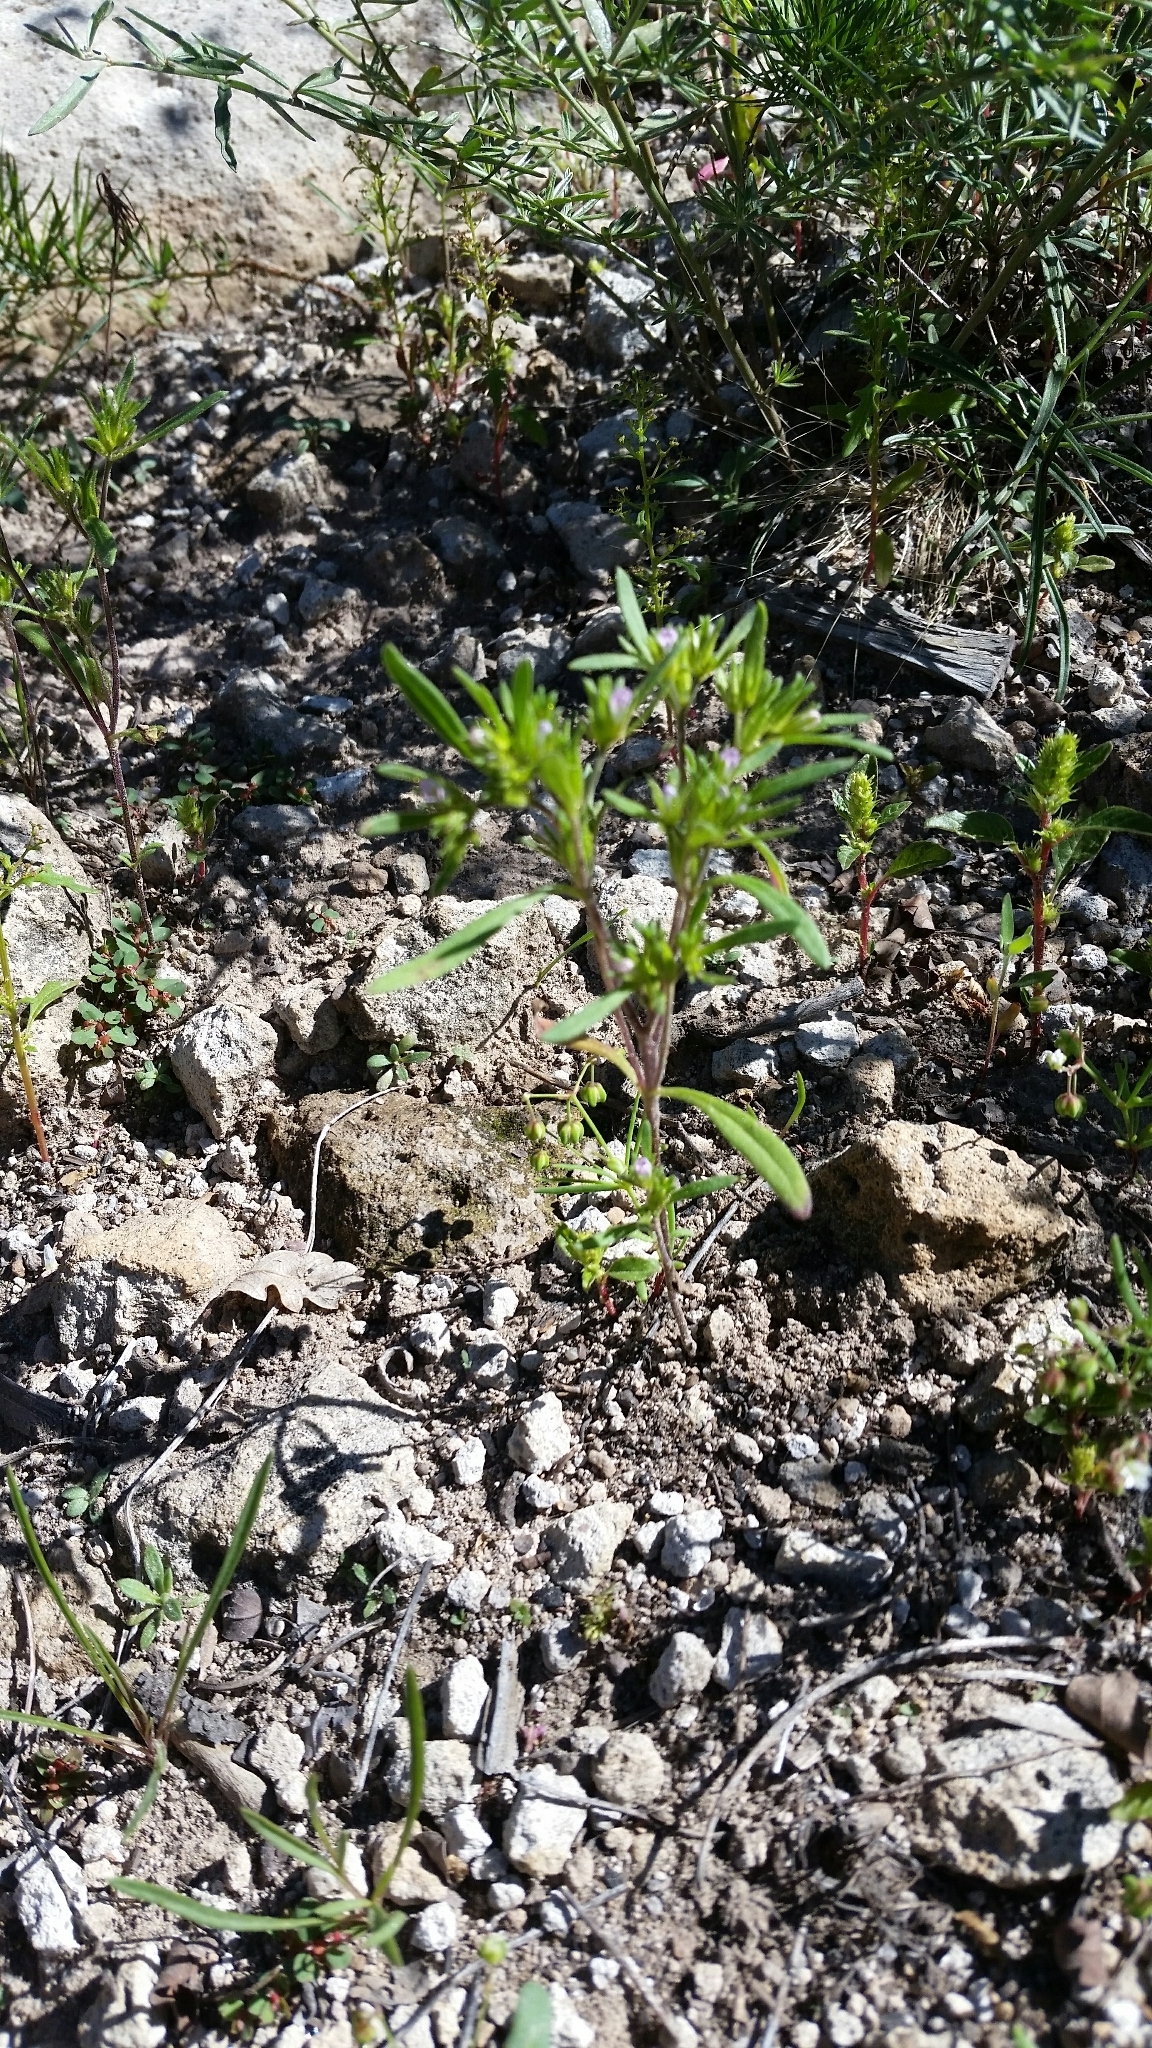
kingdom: Plantae
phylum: Tracheophyta
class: Magnoliopsida
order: Boraginales
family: Namaceae
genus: Nama
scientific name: Nama dichotoma
